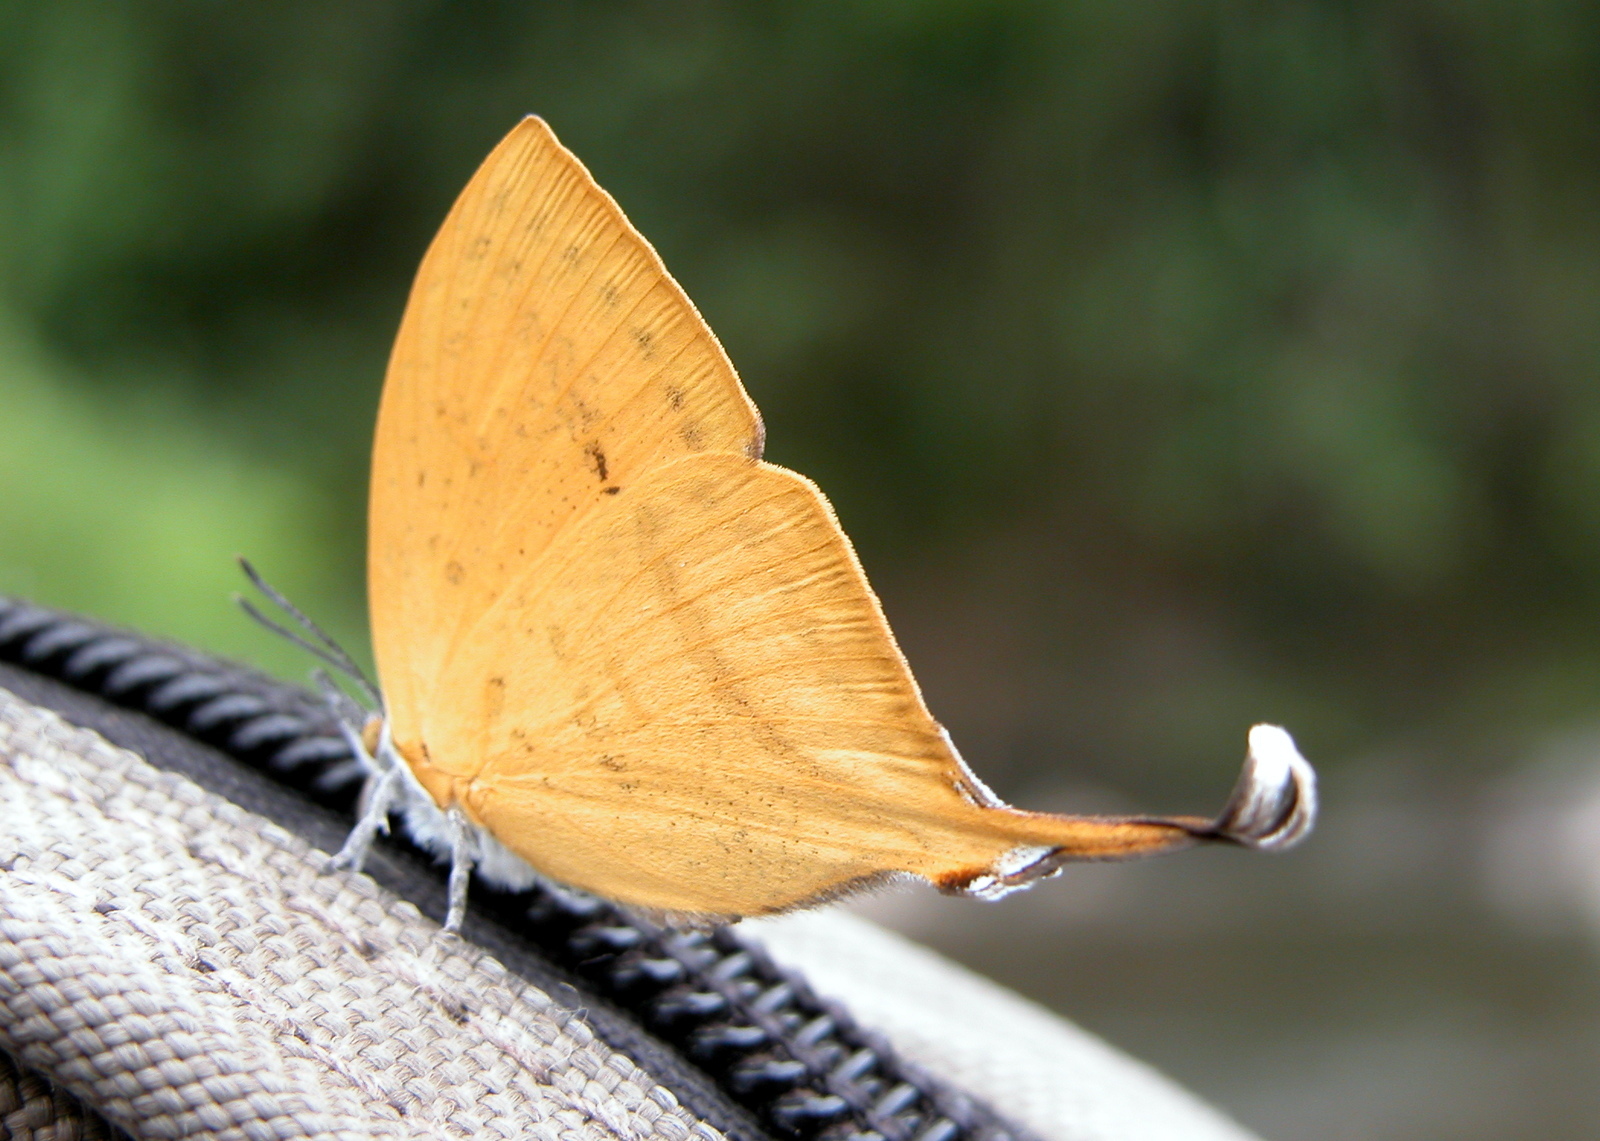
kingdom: Animalia
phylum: Arthropoda
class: Insecta
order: Lepidoptera
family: Lycaenidae
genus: Loxura
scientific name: Loxura atymnus
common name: Common yamfly
